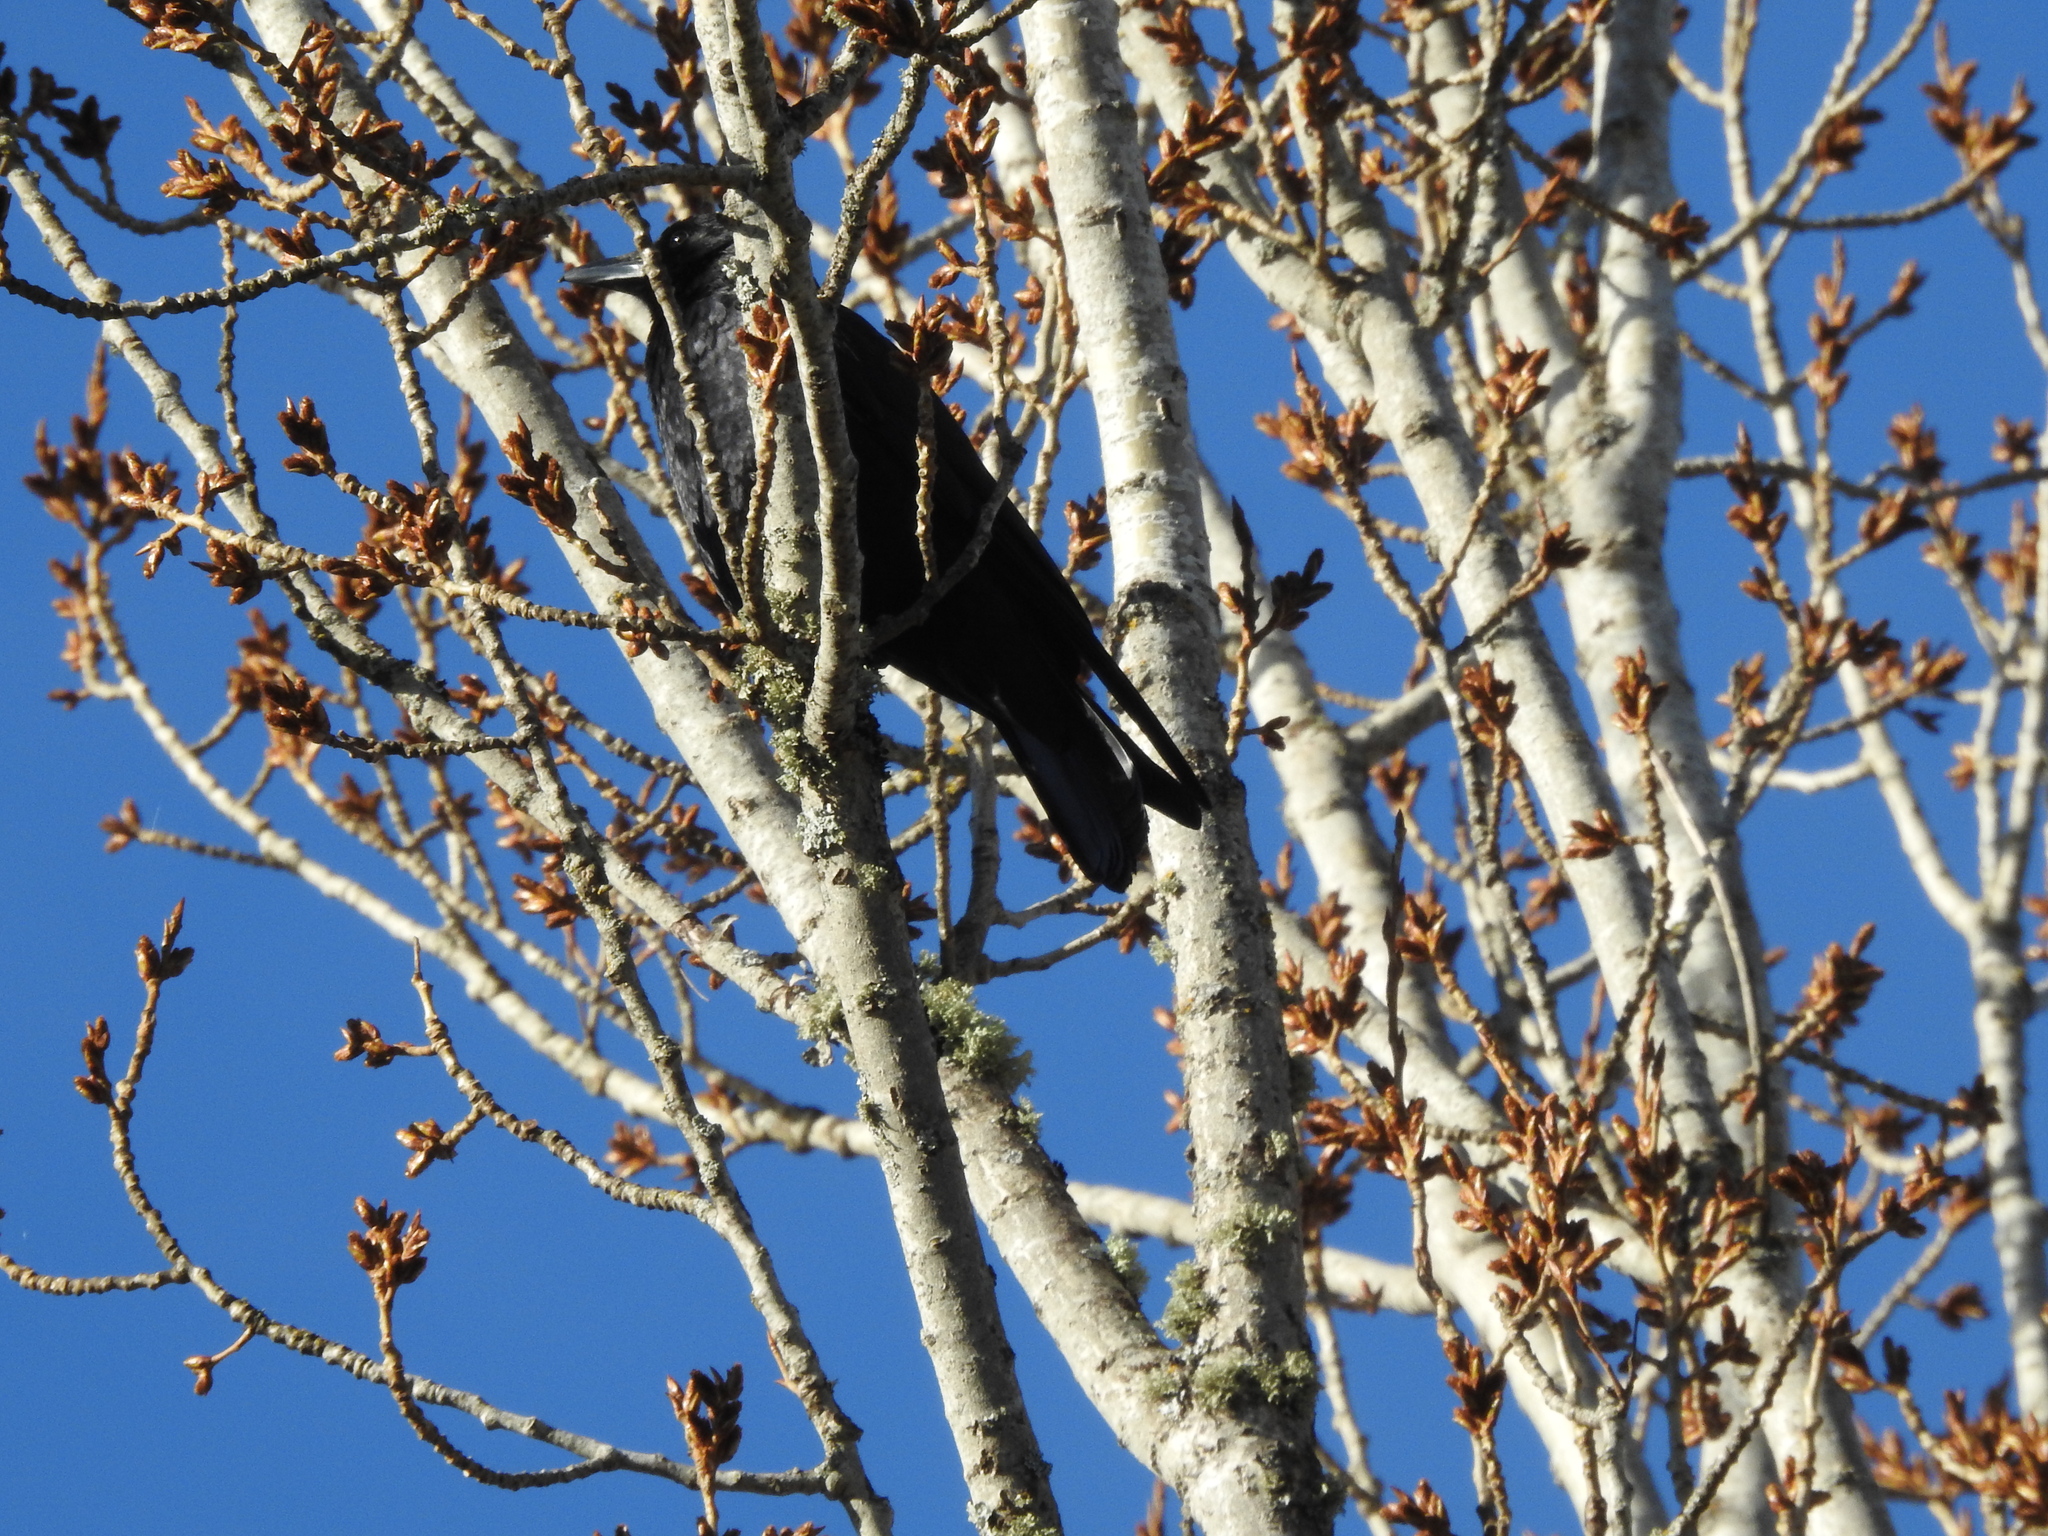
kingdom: Animalia
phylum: Chordata
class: Aves
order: Passeriformes
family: Corvidae
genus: Corvus
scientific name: Corvus corone
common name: Carrion crow
